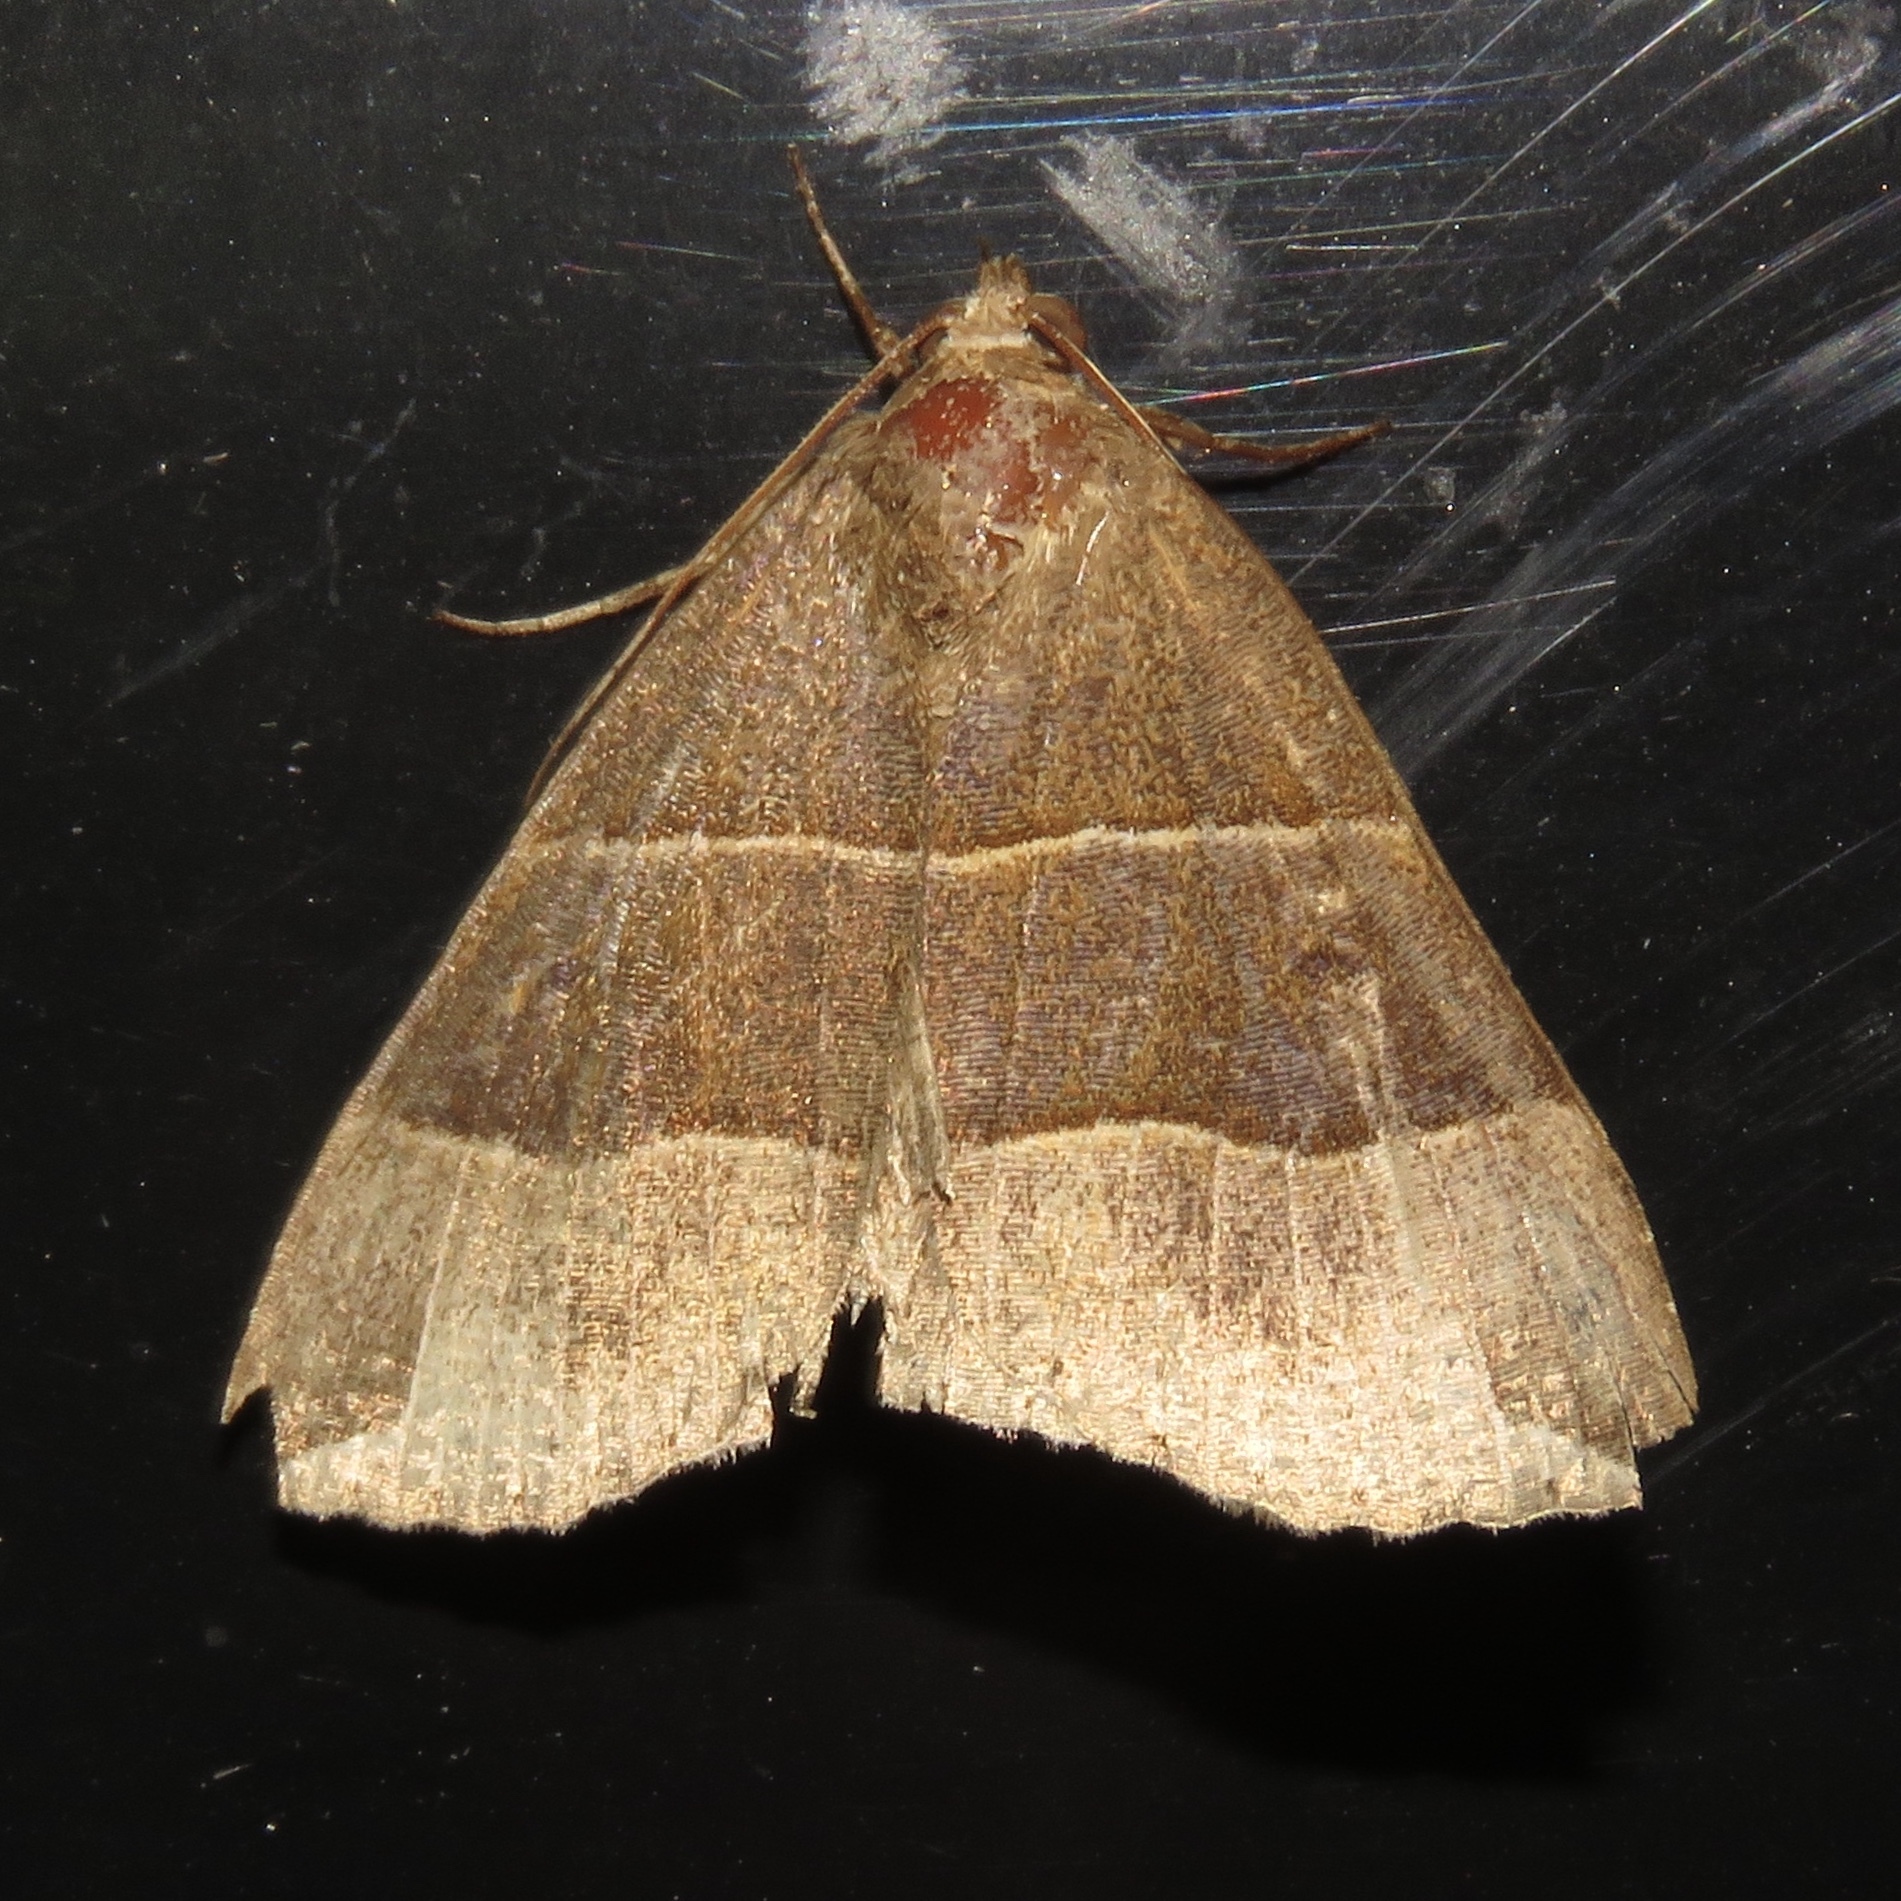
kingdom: Animalia
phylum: Arthropoda
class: Insecta
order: Lepidoptera
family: Erebidae
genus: Parallelia
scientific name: Parallelia bistriaris
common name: Maple looper moth
